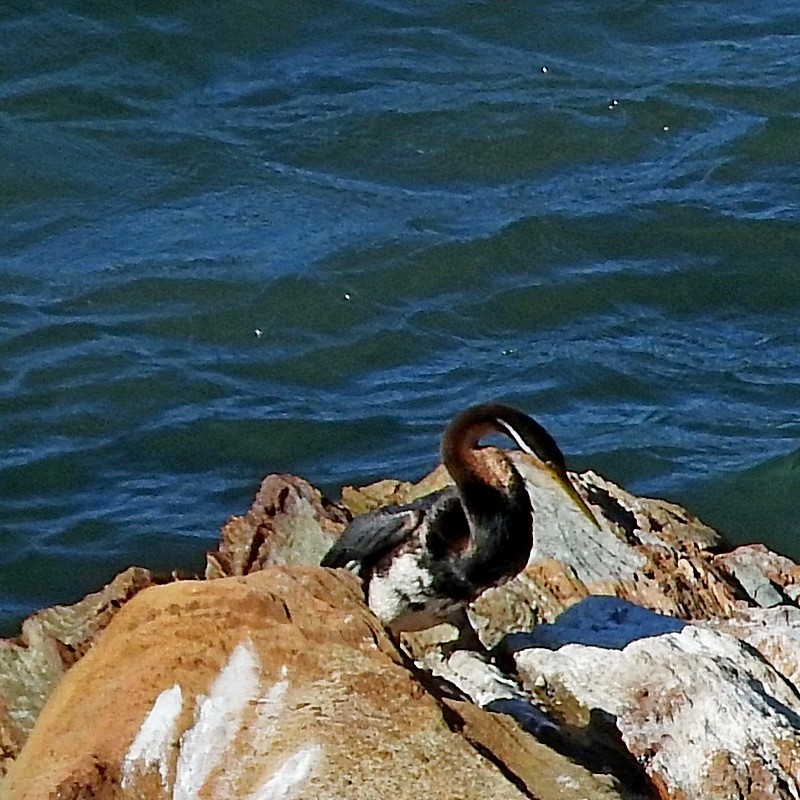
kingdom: Animalia
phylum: Chordata
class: Aves
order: Suliformes
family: Anhingidae
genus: Anhinga
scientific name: Anhinga novaehollandiae
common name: Australasian darter
